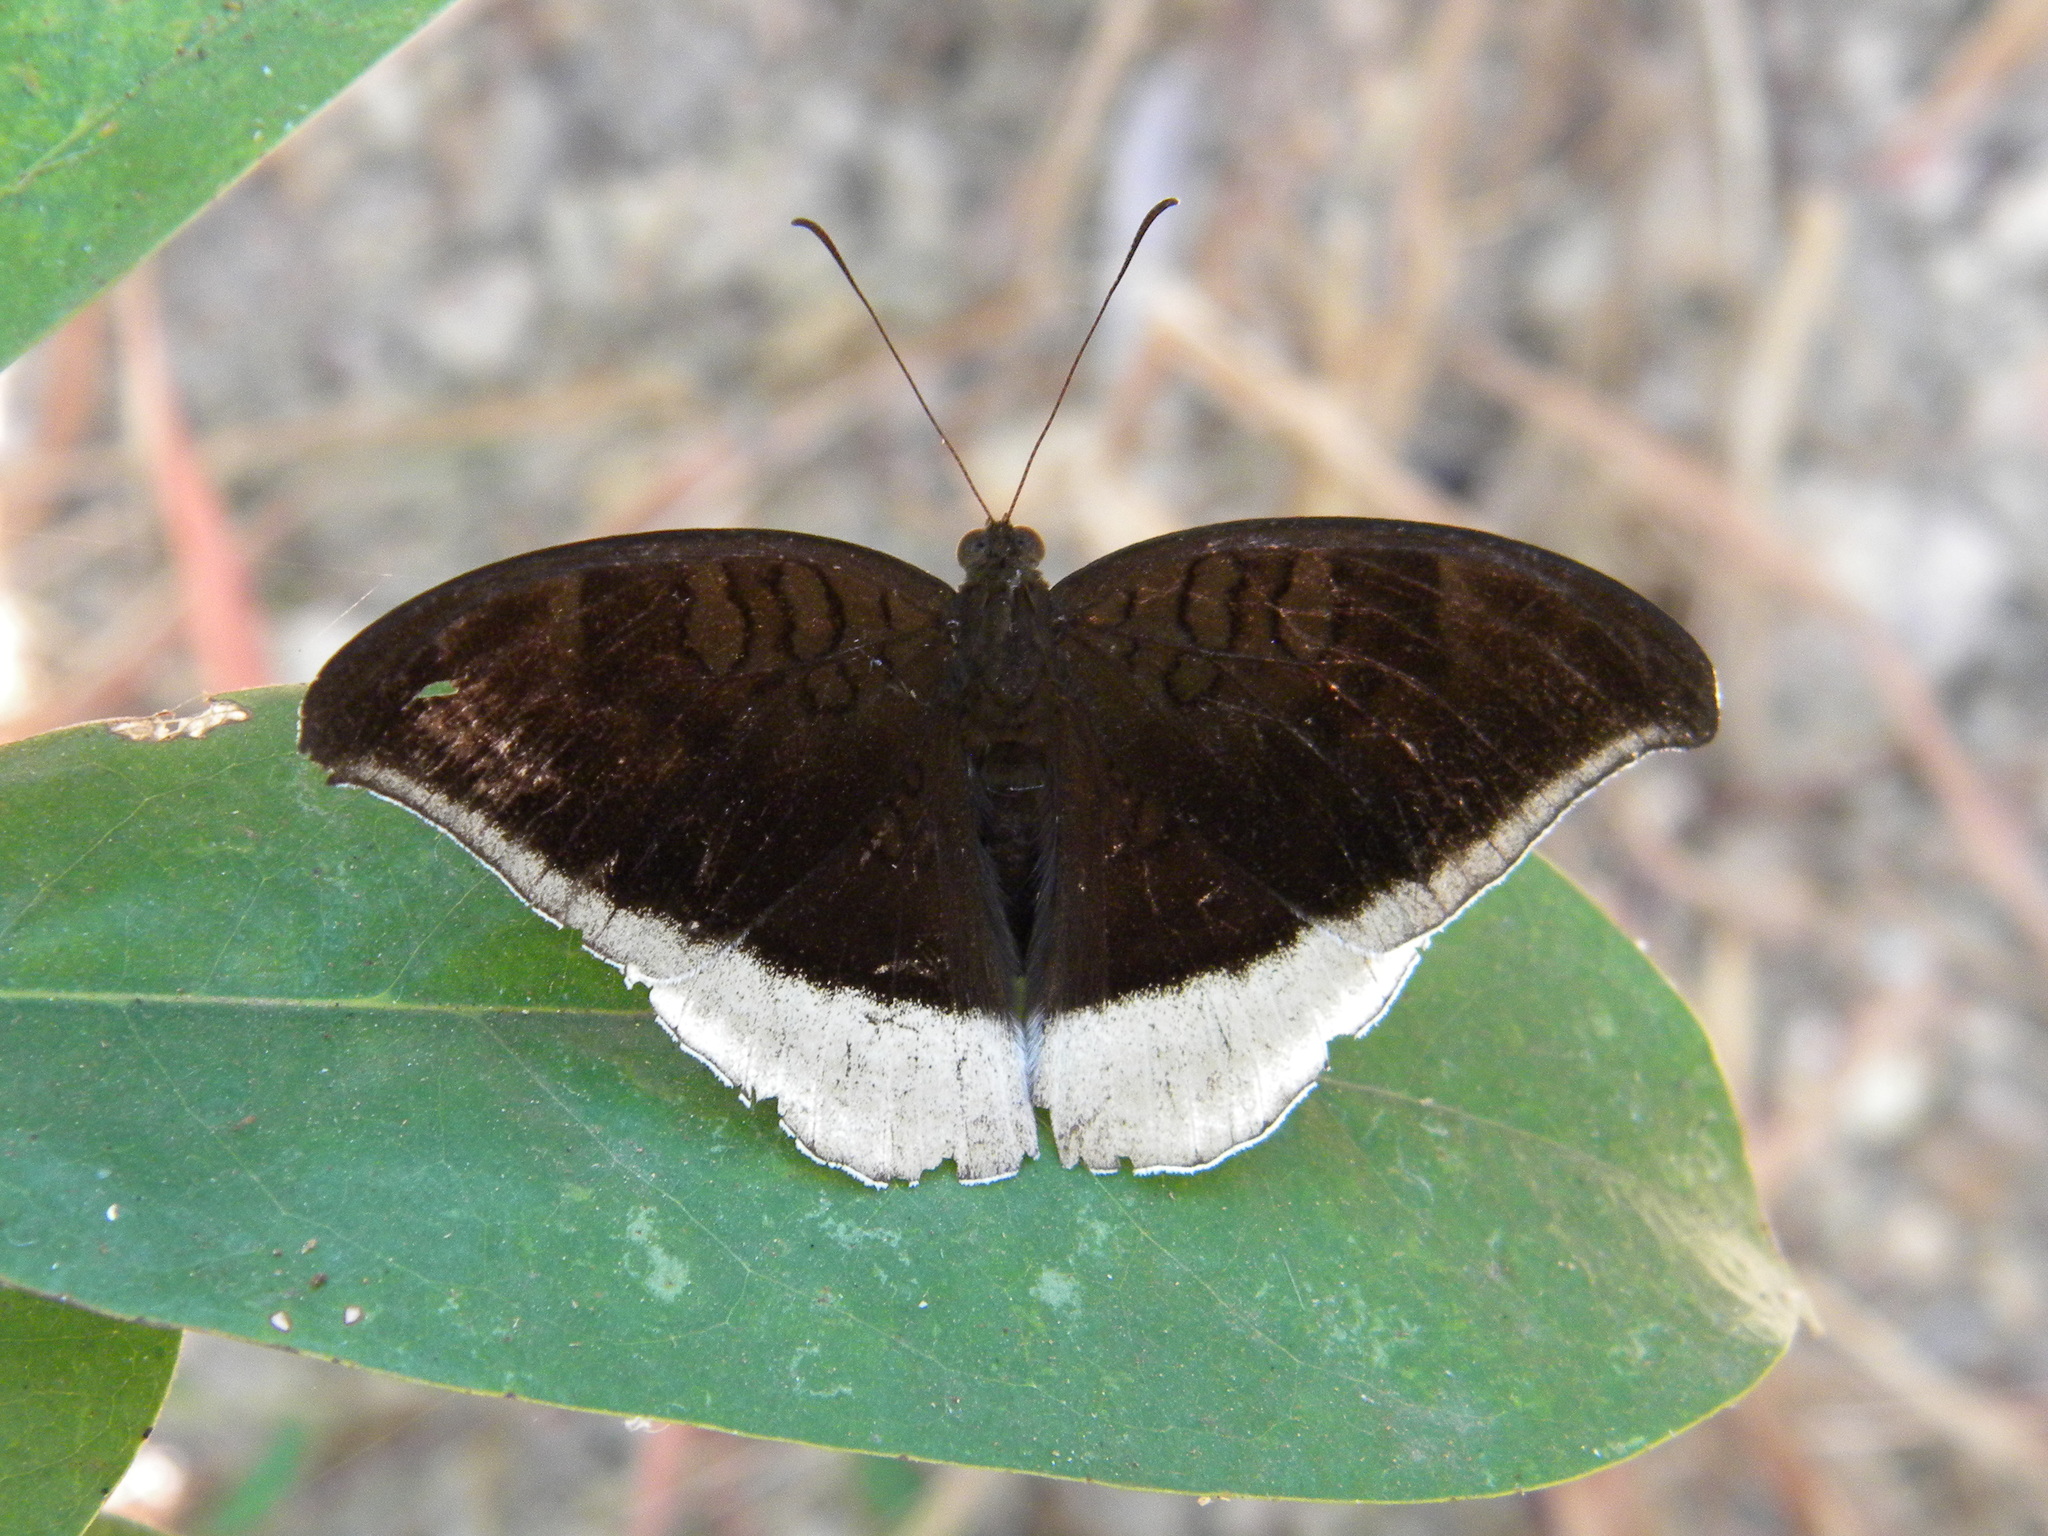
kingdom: Animalia
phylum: Arthropoda
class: Insecta
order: Lepidoptera
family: Nymphalidae
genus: Tanaecia
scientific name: Tanaecia lepidea
